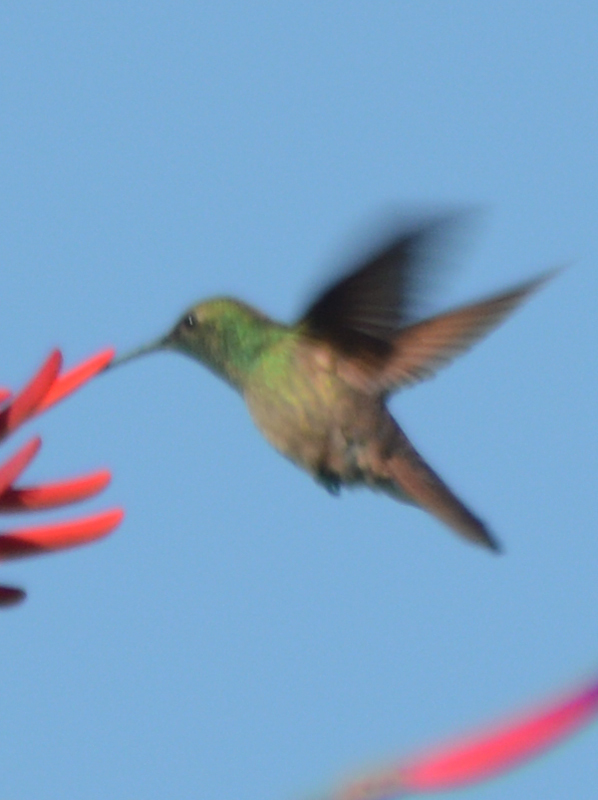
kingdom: Animalia
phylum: Chordata
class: Aves
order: Apodiformes
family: Trochilidae
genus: Saucerottia
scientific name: Saucerottia beryllina
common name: Berylline hummingbird
